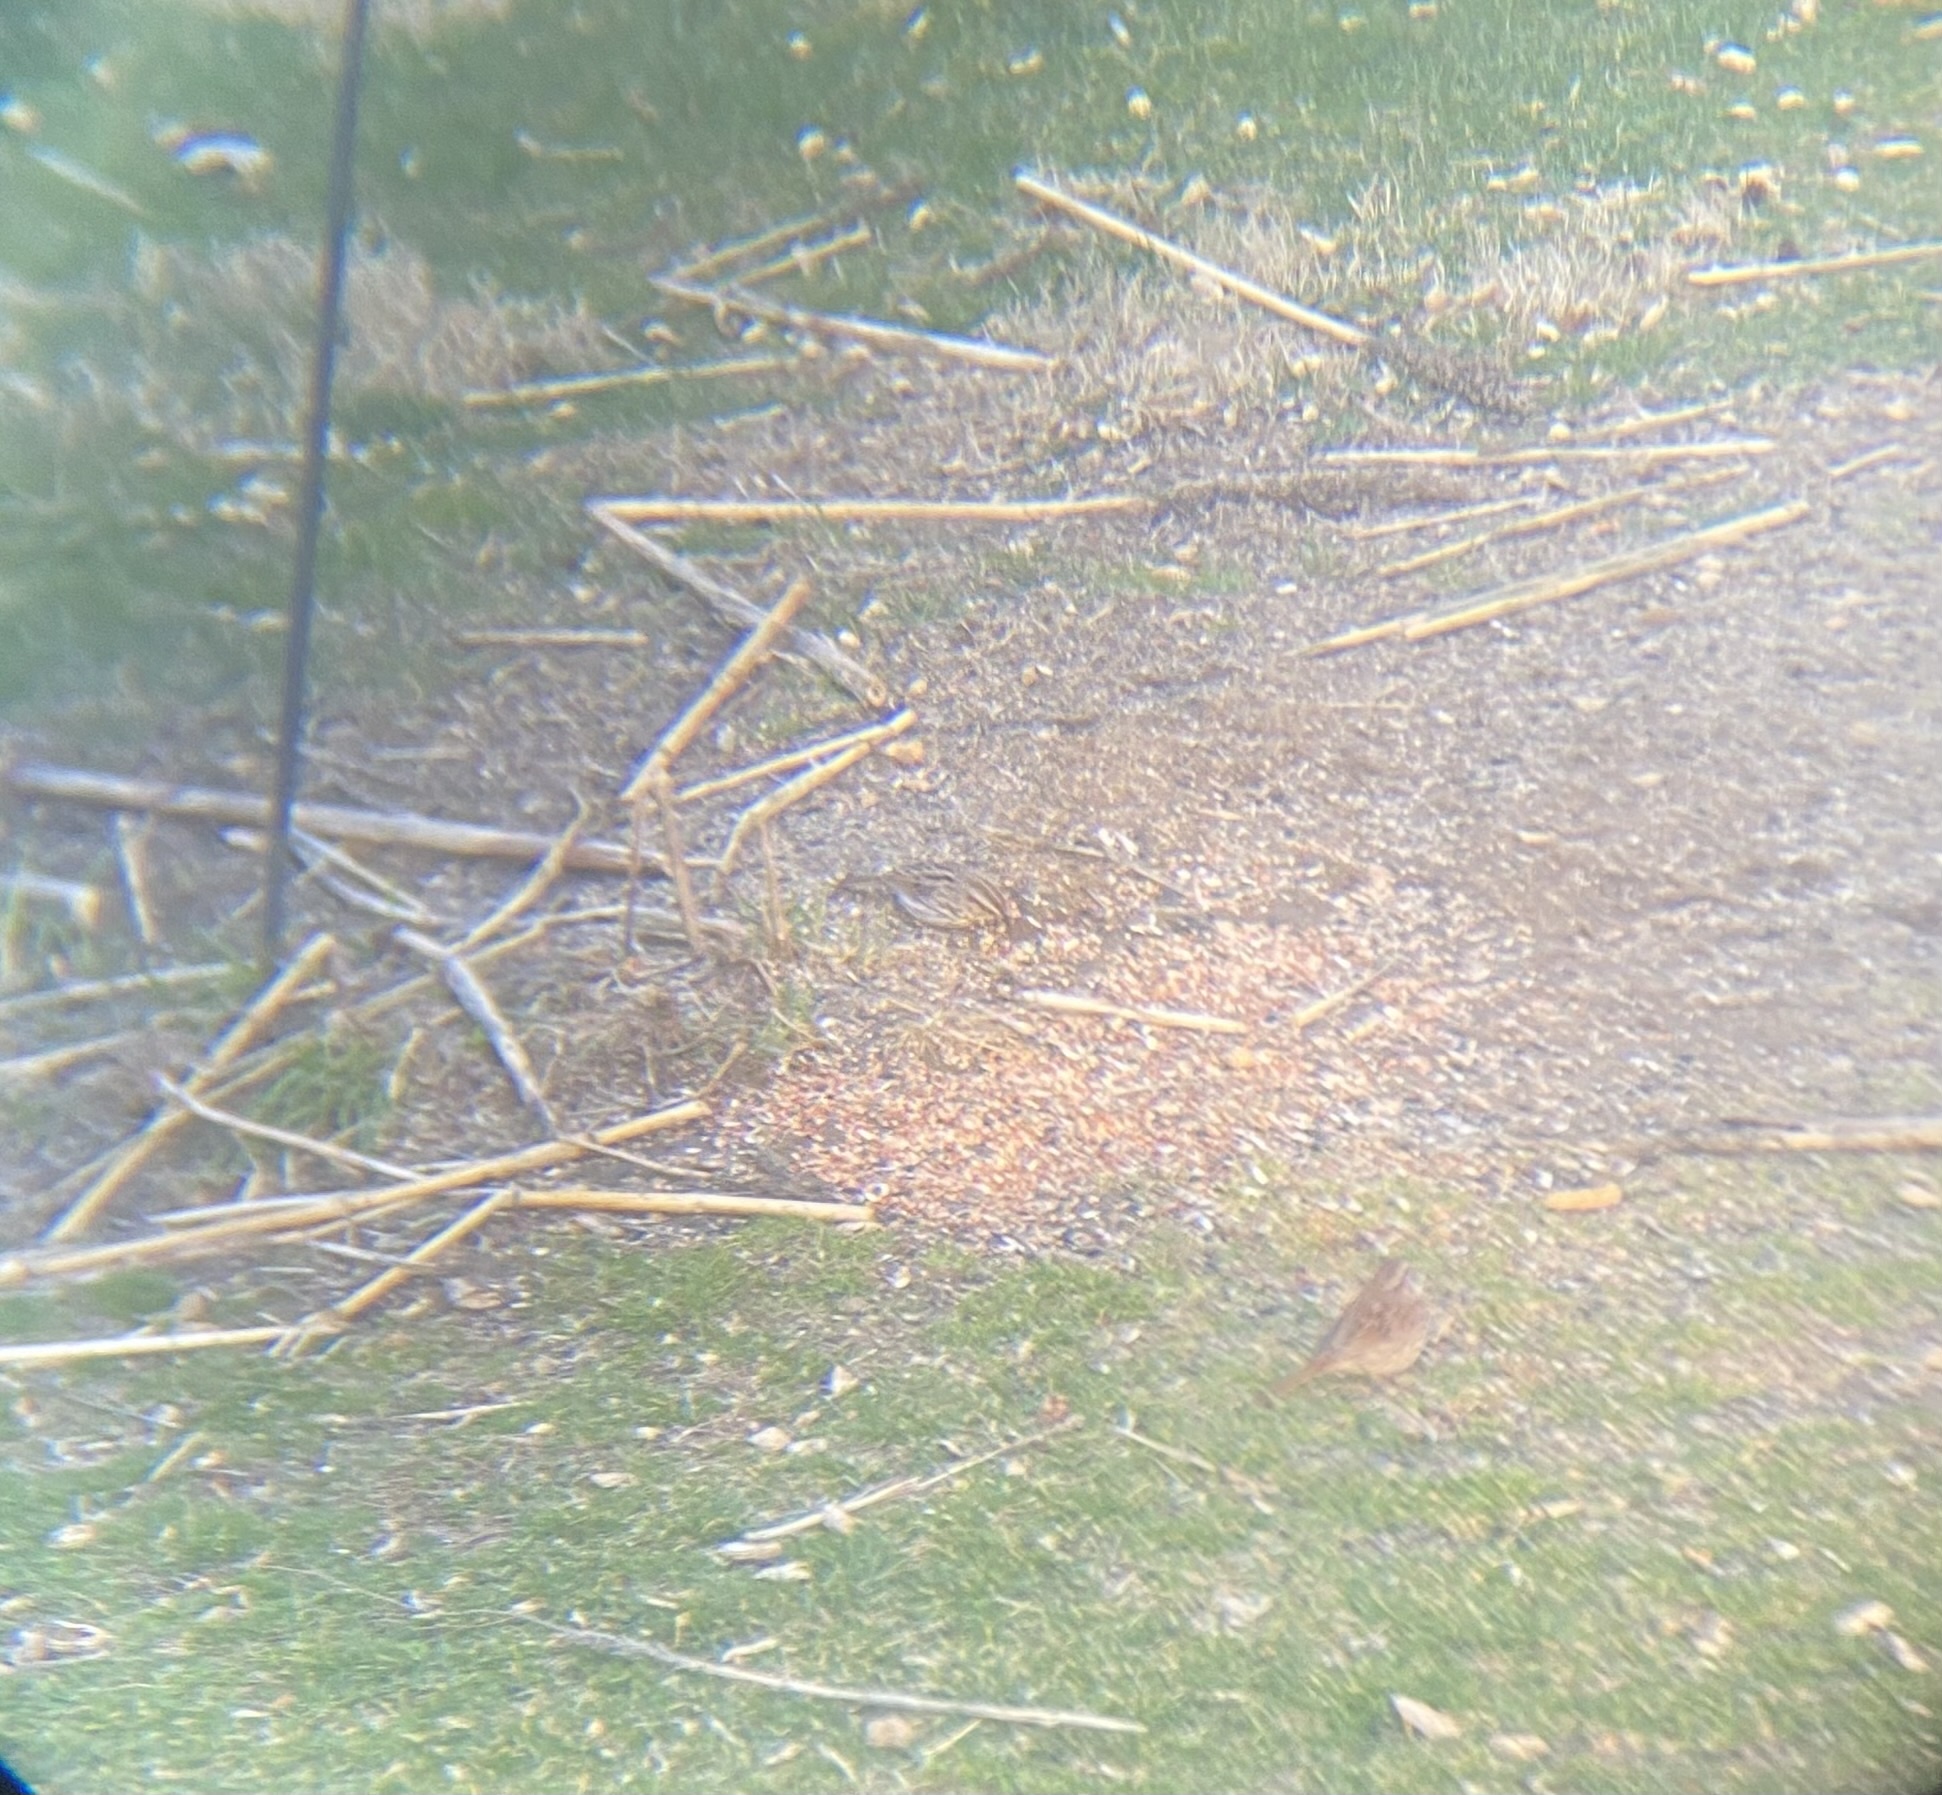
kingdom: Animalia
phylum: Chordata
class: Aves
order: Passeriformes
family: Passerellidae
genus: Melospiza
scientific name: Melospiza melodia
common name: Song sparrow
